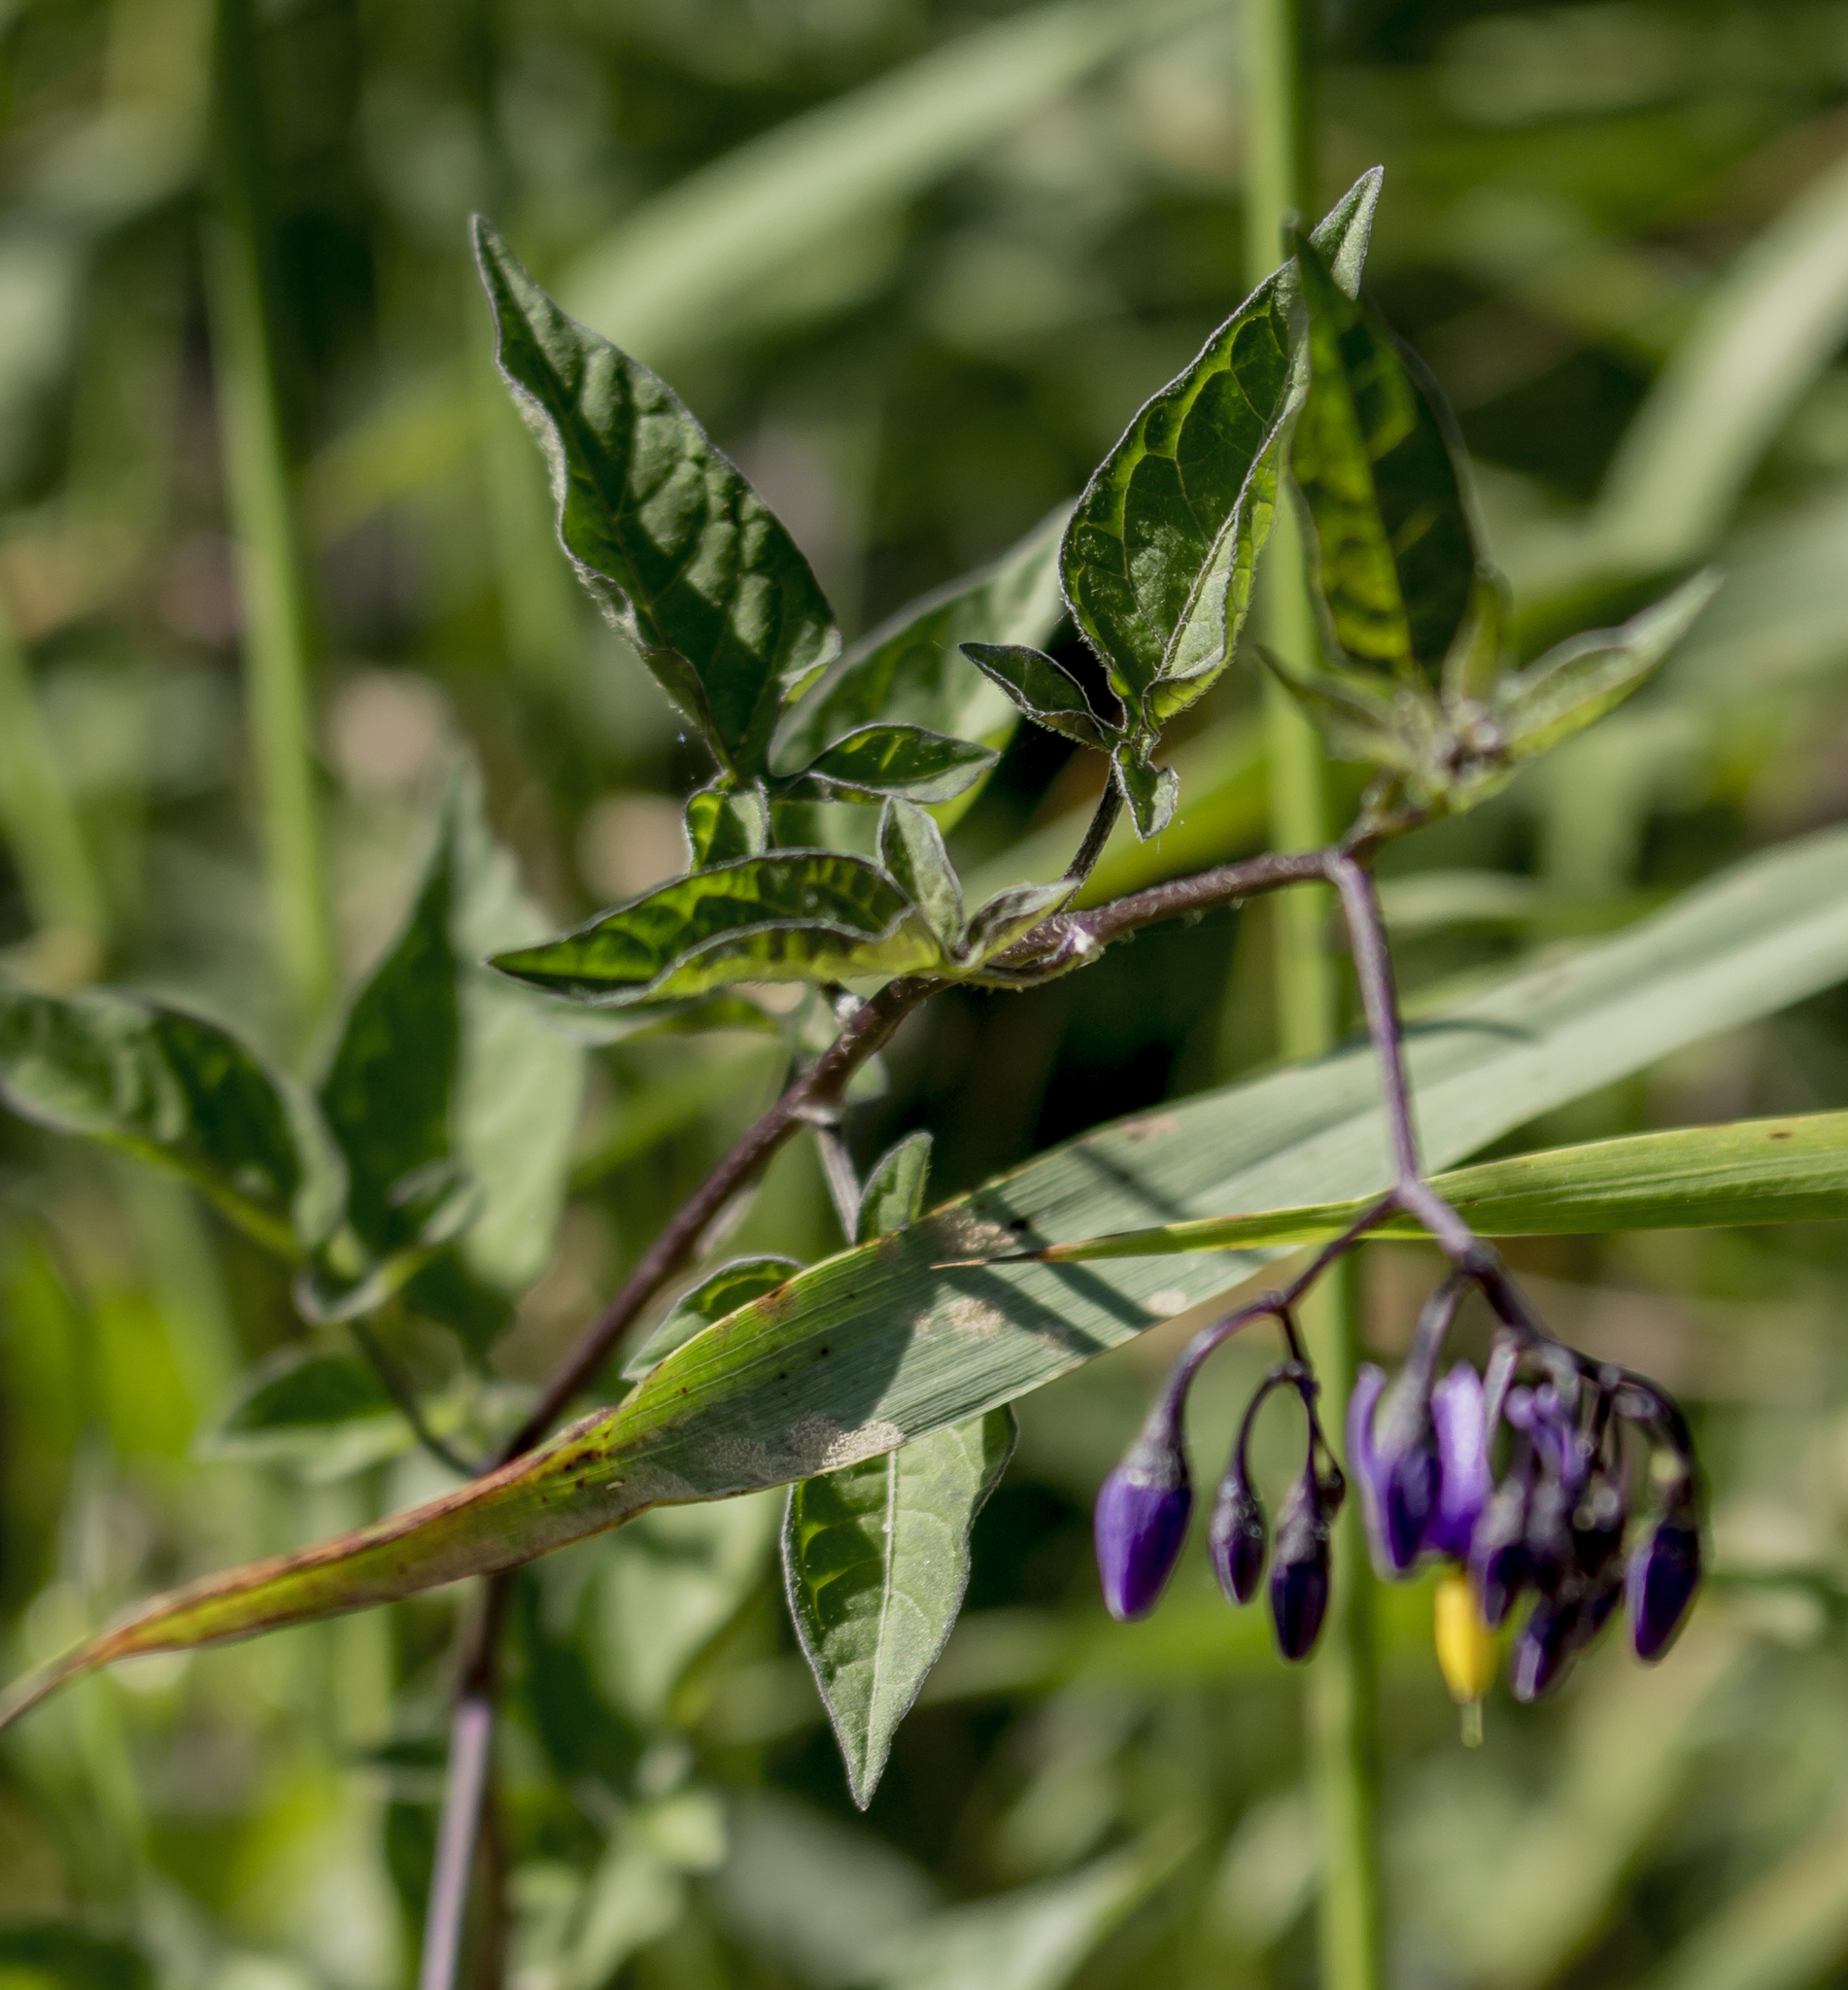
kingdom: Plantae
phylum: Tracheophyta
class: Magnoliopsida
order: Solanales
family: Solanaceae
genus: Solanum
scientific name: Solanum dulcamara
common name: Climbing nightshade
